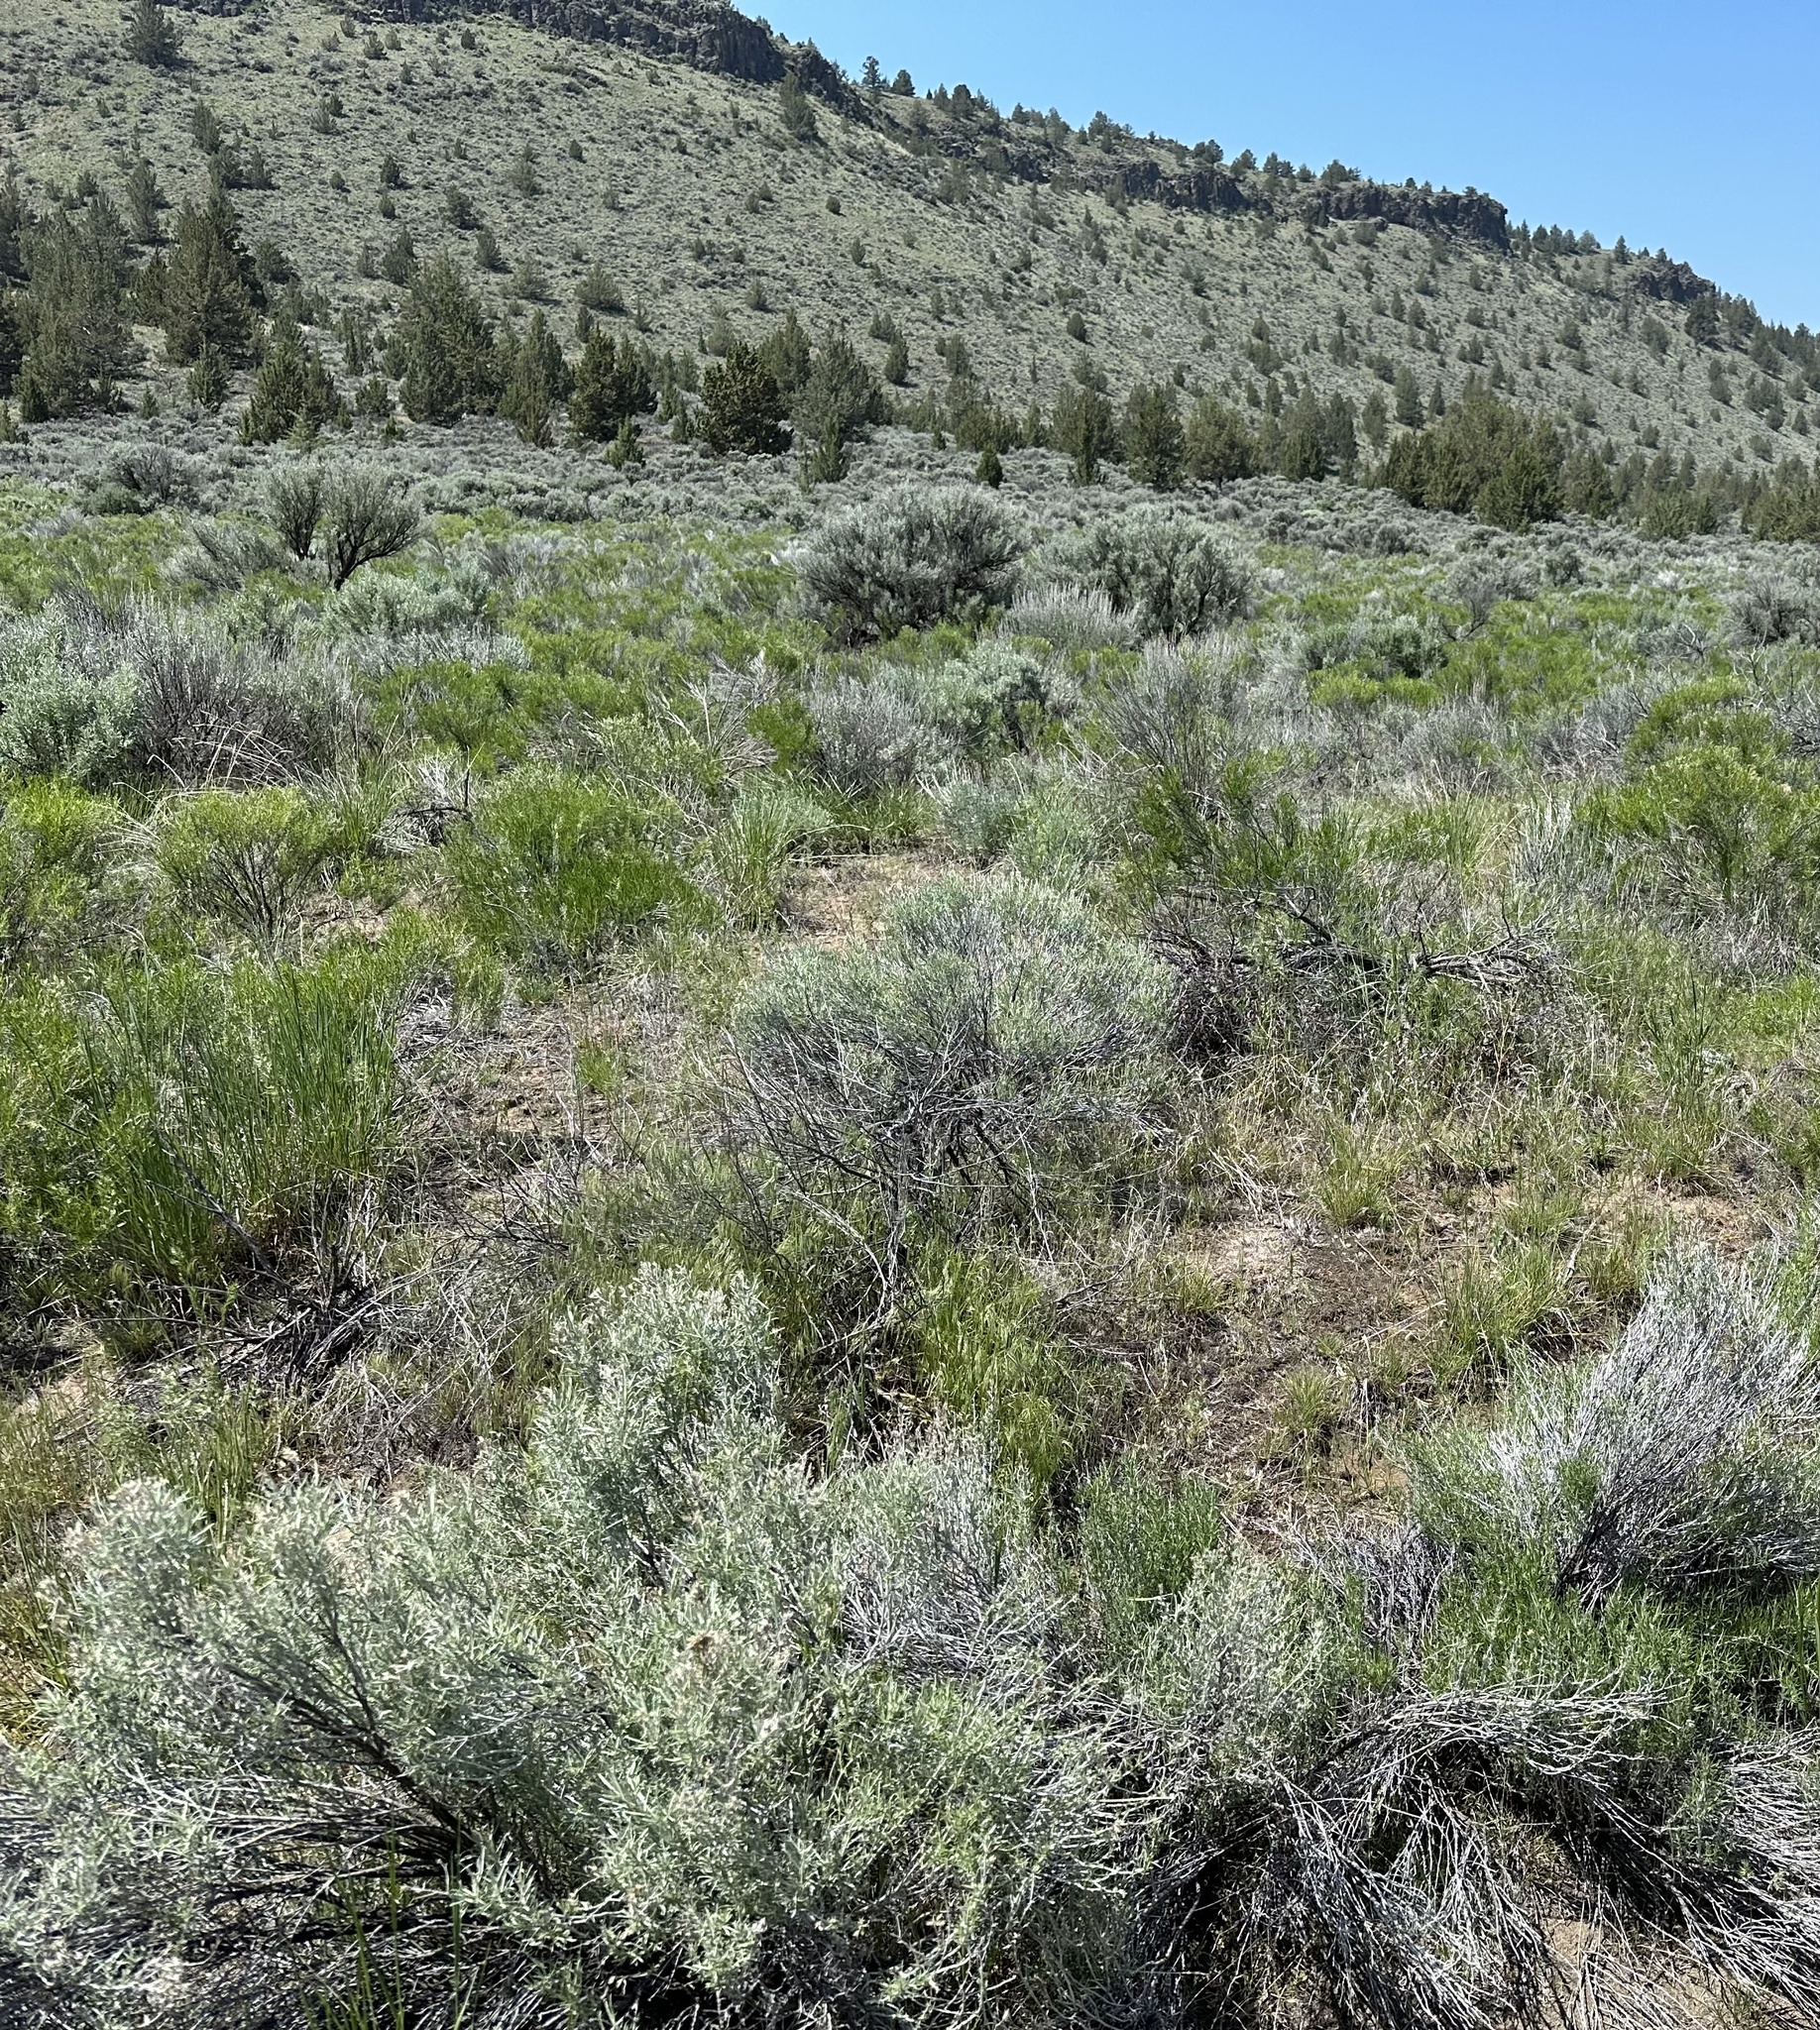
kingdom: Plantae
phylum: Tracheophyta
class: Magnoliopsida
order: Asterales
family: Asteraceae
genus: Chrysothamnus
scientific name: Chrysothamnus viscidiflorus
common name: Yellow rabbitbrush
